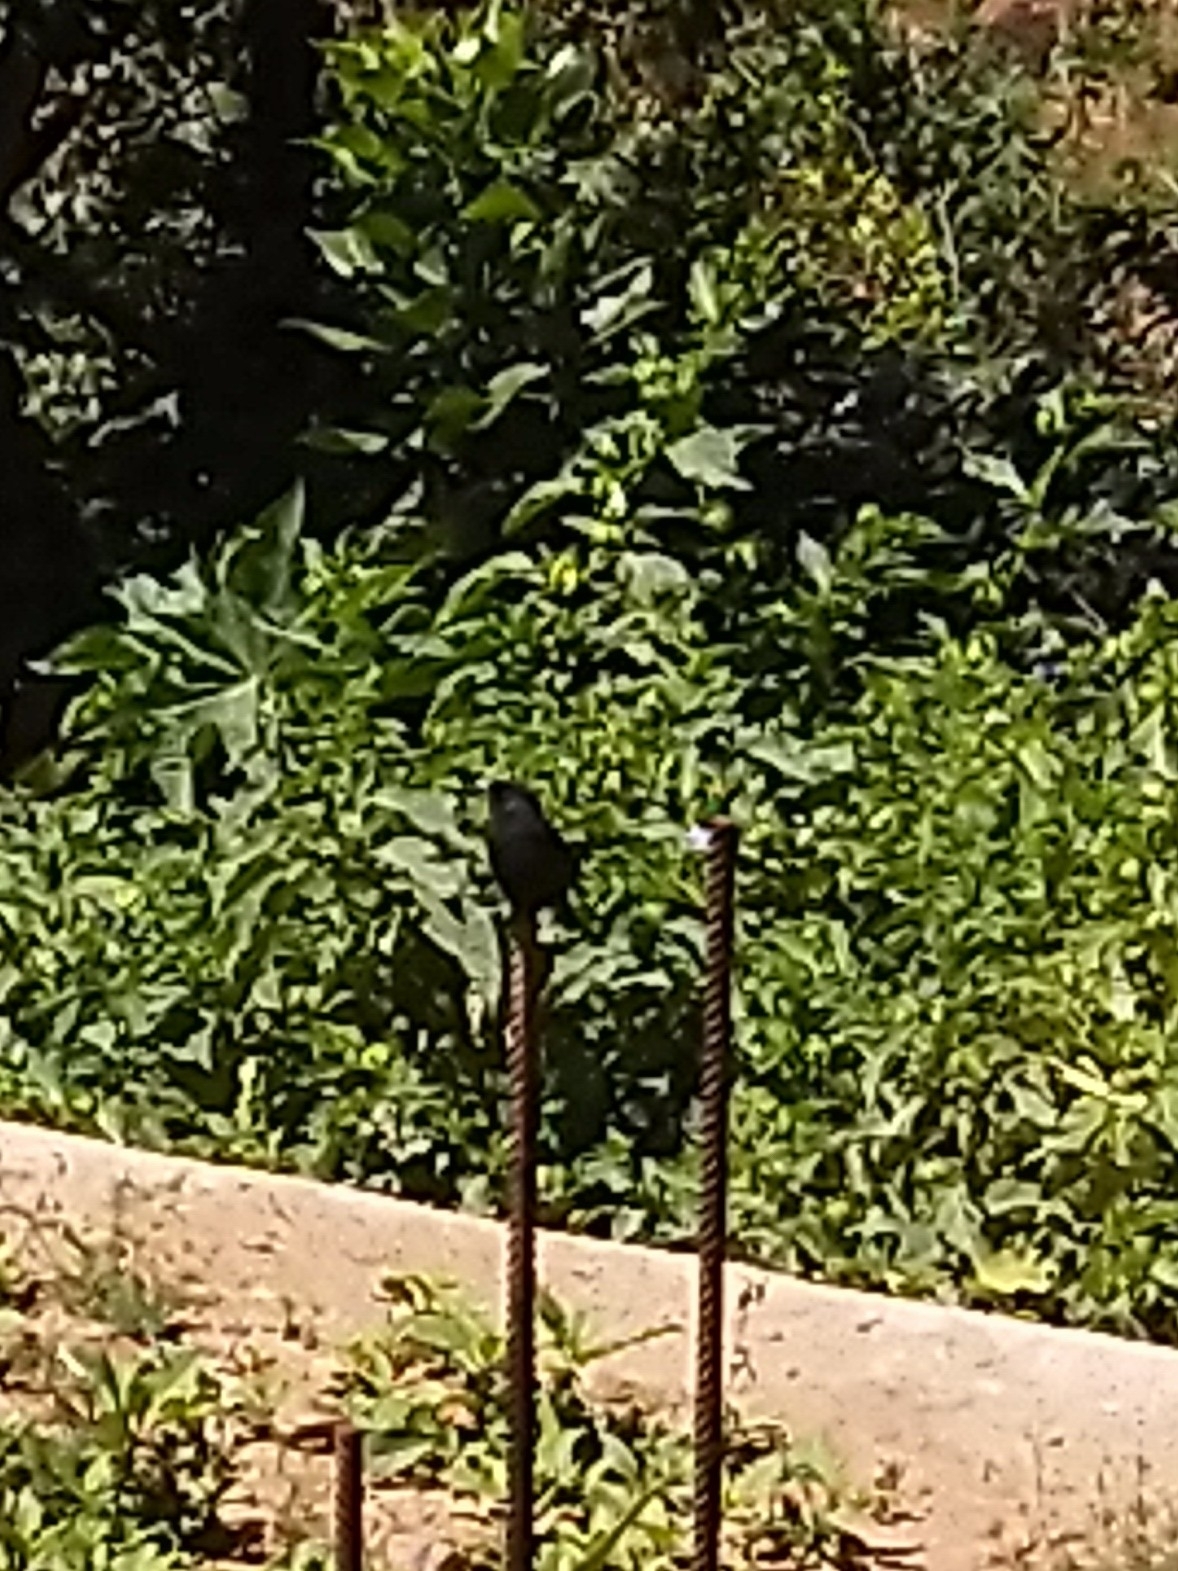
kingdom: Animalia
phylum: Chordata
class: Aves
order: Passeriformes
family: Muscicapidae
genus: Saxicola
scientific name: Saxicola caprata
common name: Pied bush chat
